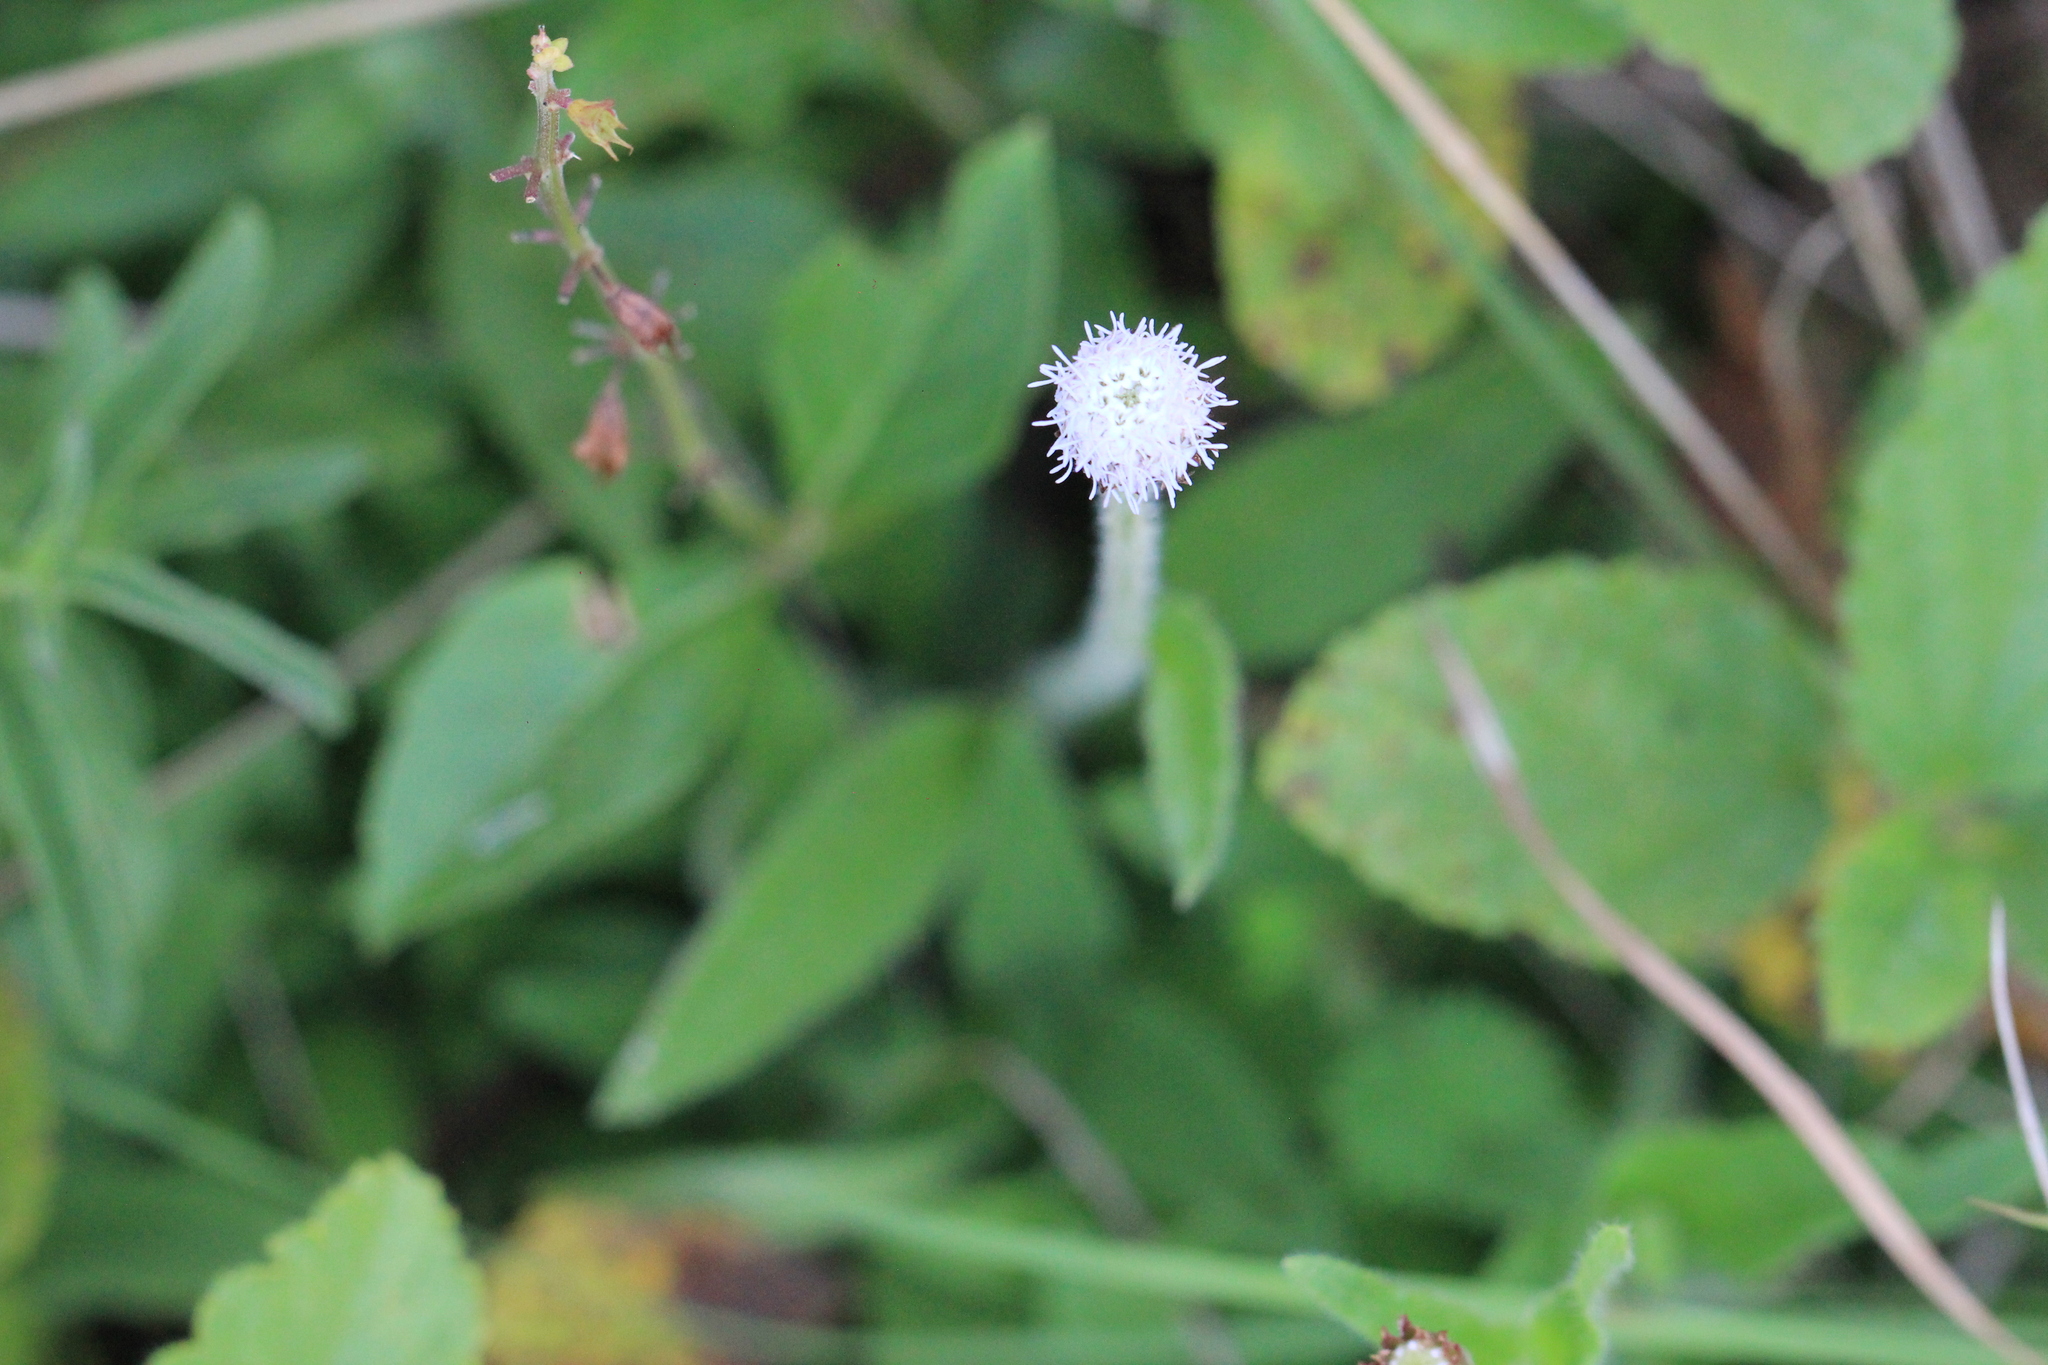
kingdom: Plantae
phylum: Tracheophyta
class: Magnoliopsida
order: Asterales
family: Asteraceae
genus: Praxelis
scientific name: Praxelis missiona
